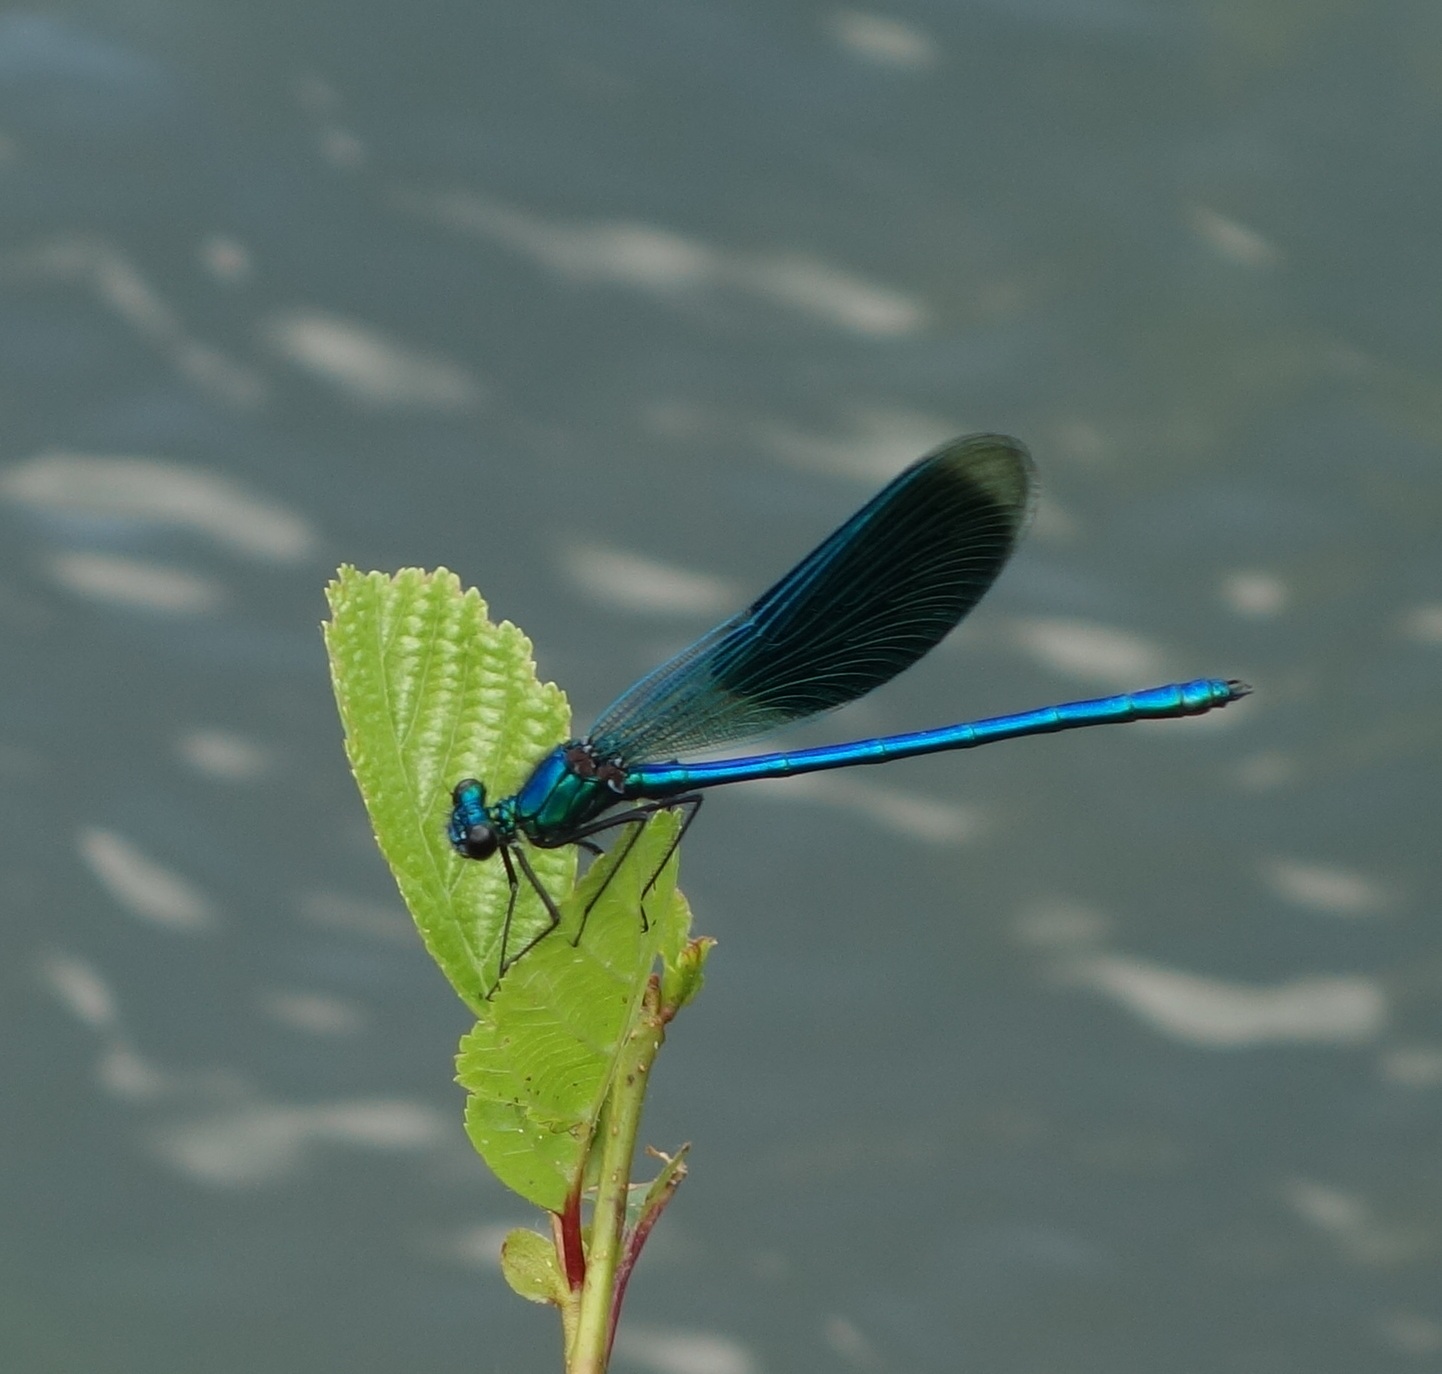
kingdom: Animalia
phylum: Arthropoda
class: Insecta
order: Odonata
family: Calopterygidae
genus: Calopteryx
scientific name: Calopteryx splendens
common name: Banded demoiselle
